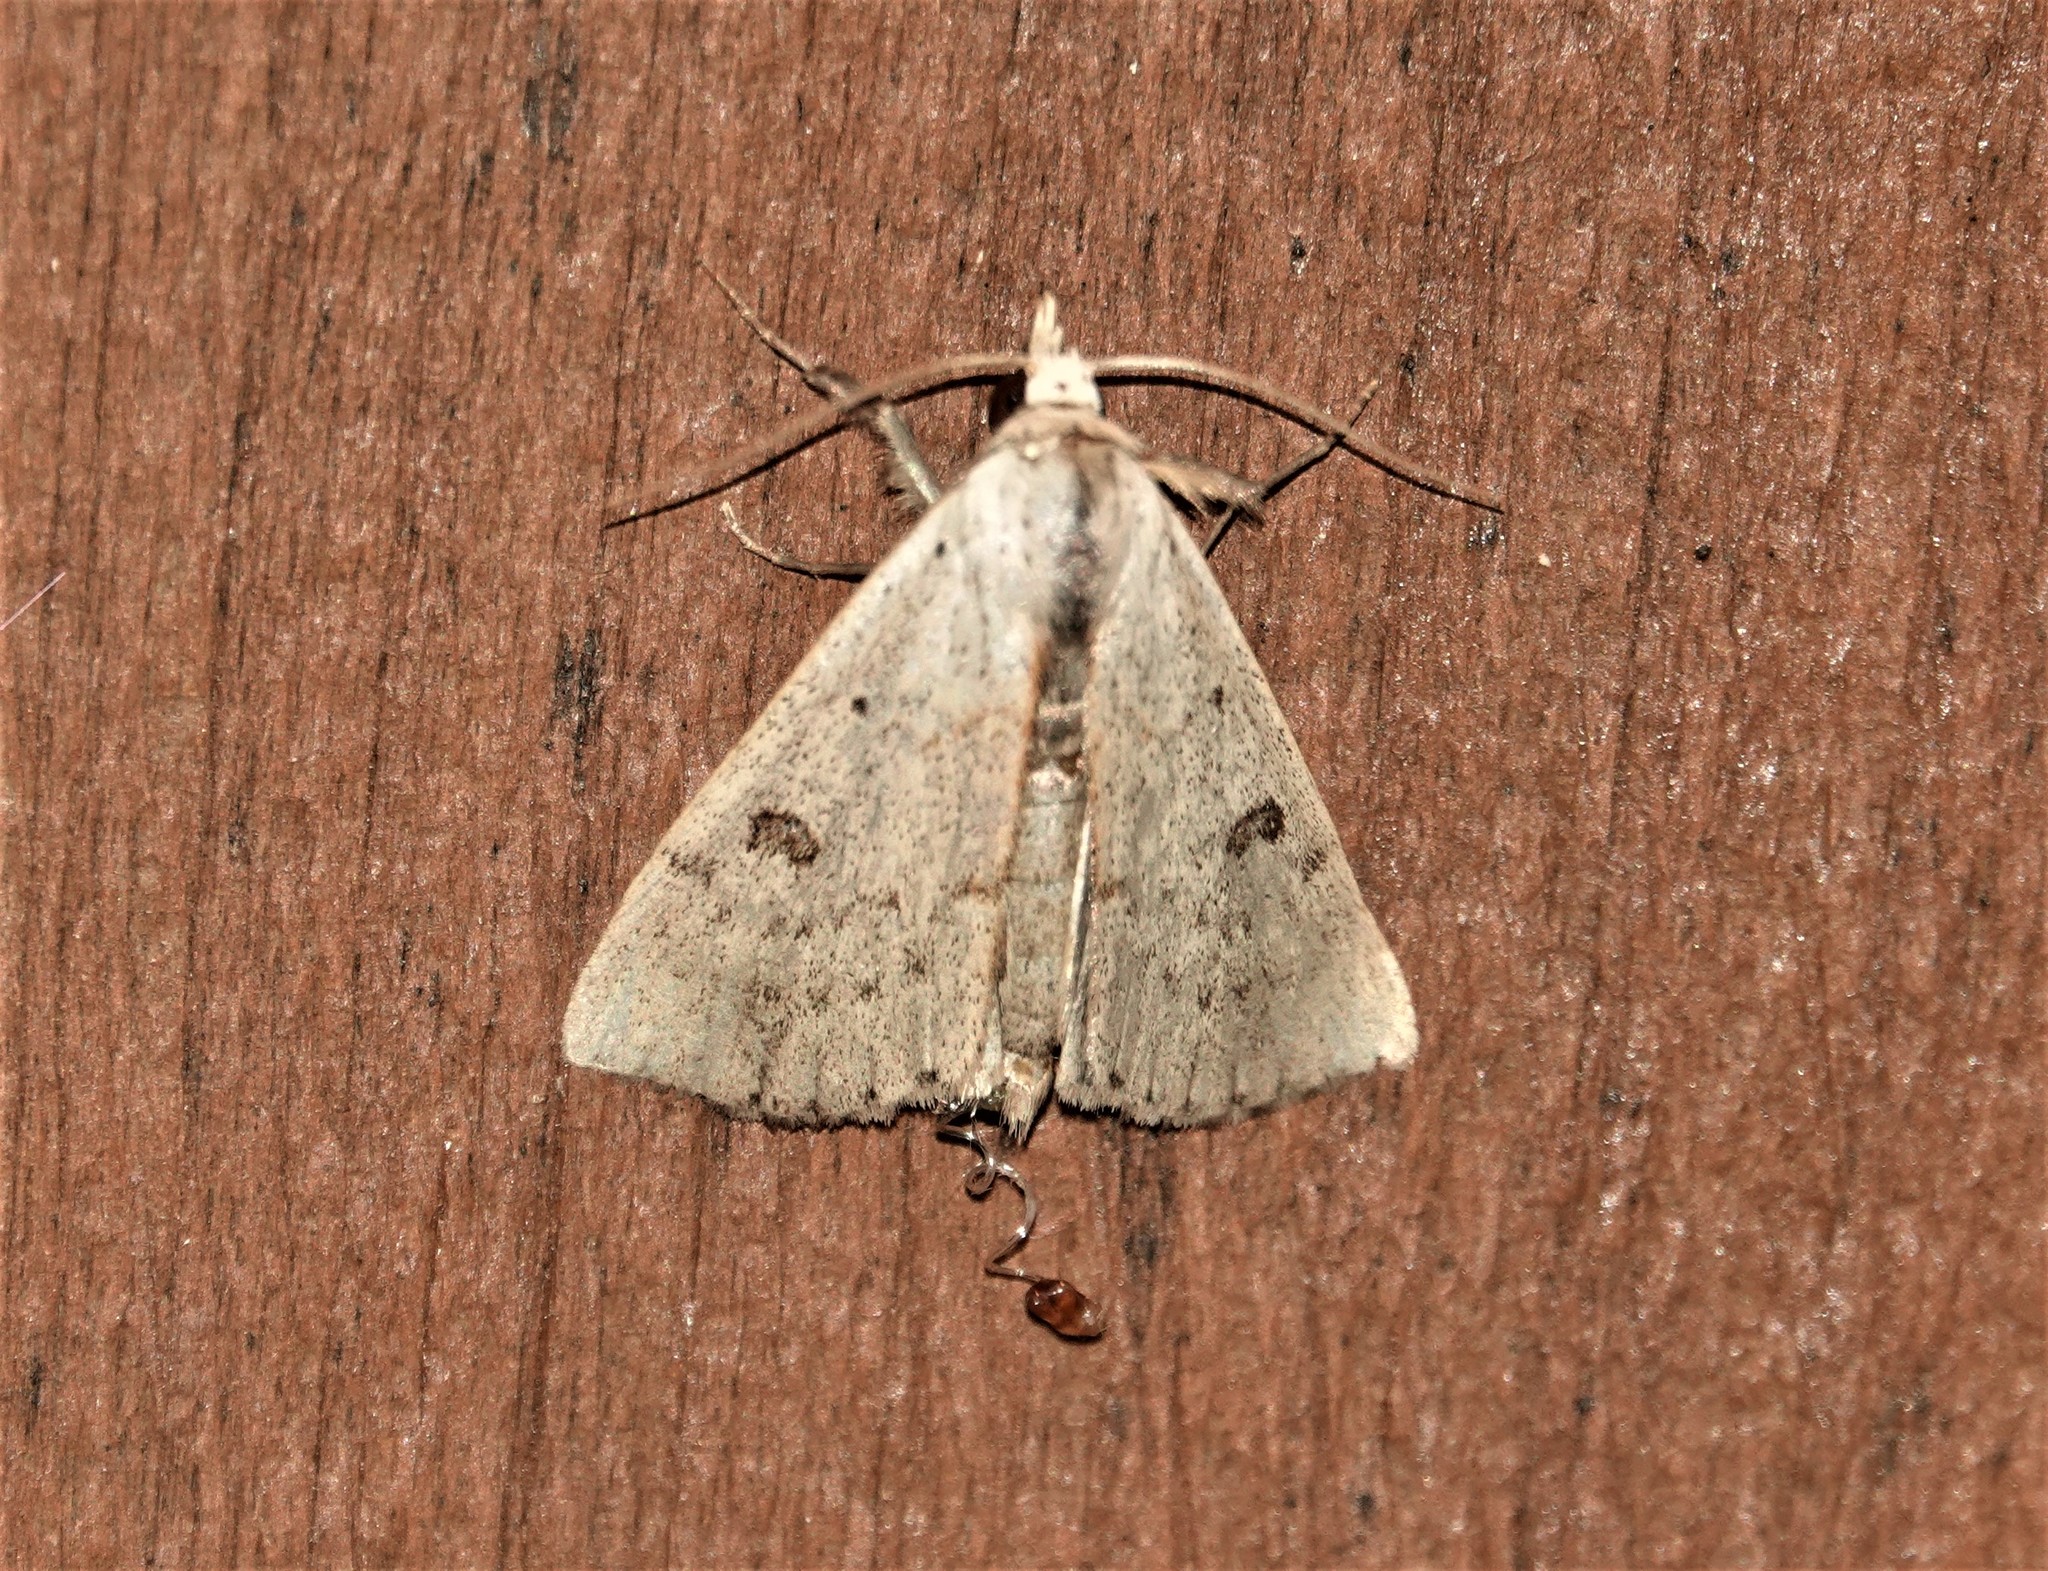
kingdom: Animalia
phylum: Arthropoda
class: Insecta
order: Lepidoptera
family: Erebidae
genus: Scolecocampa
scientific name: Scolecocampa liburna
